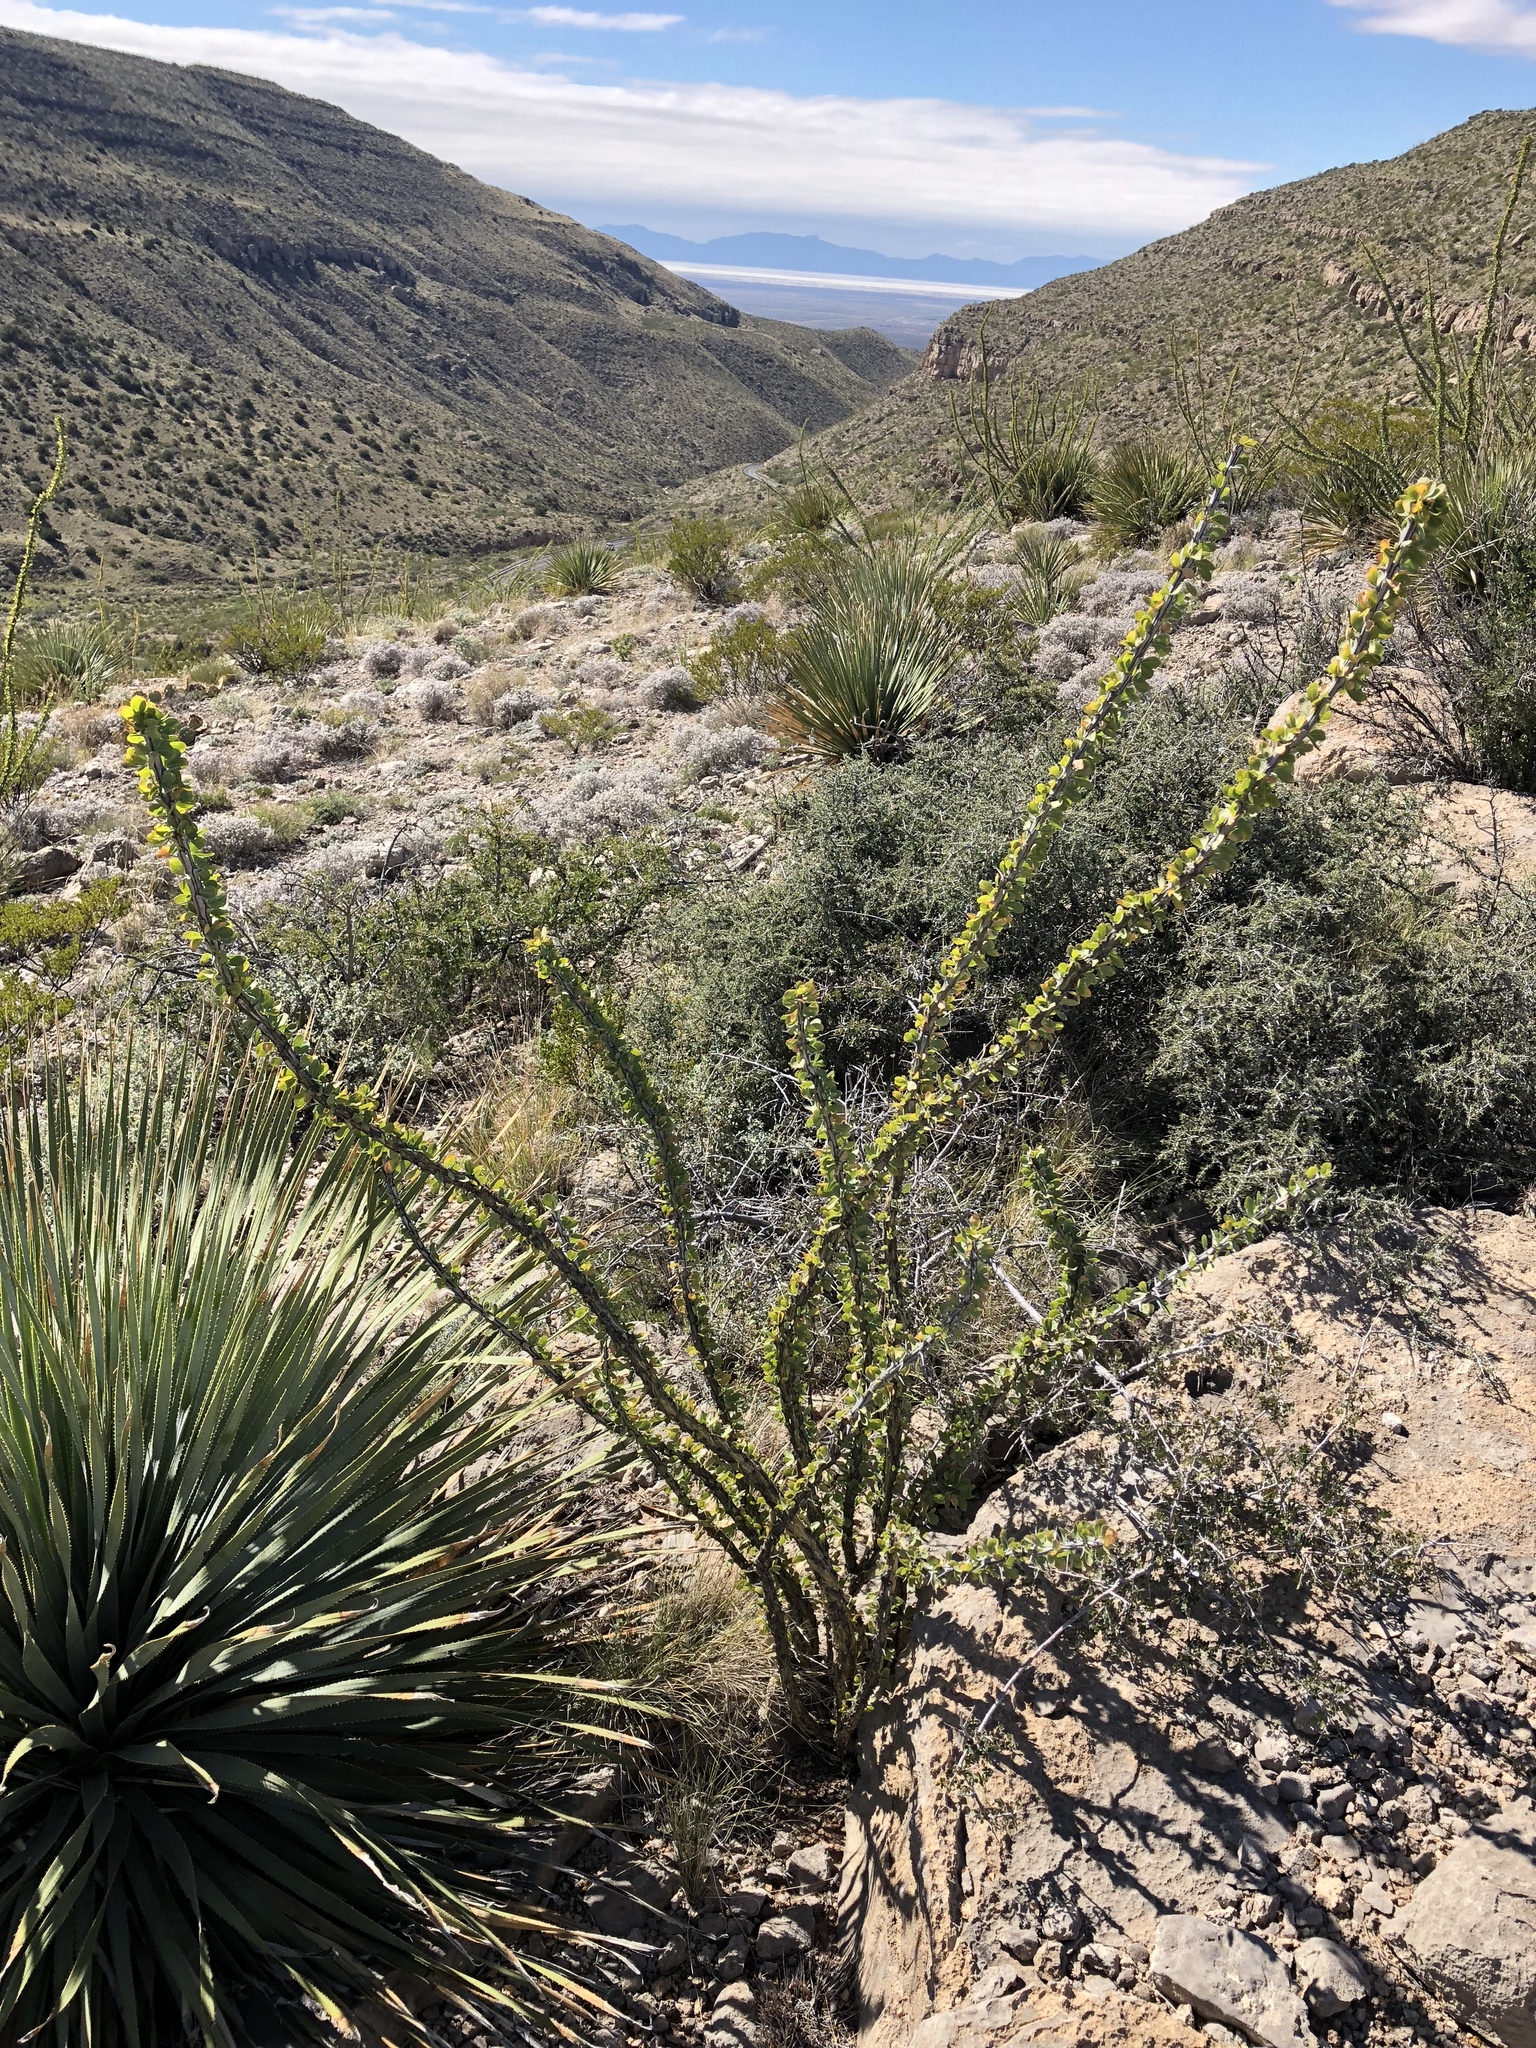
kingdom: Plantae
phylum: Tracheophyta
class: Magnoliopsida
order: Ericales
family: Fouquieriaceae
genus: Fouquieria
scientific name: Fouquieria splendens
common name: Vine-cactus
